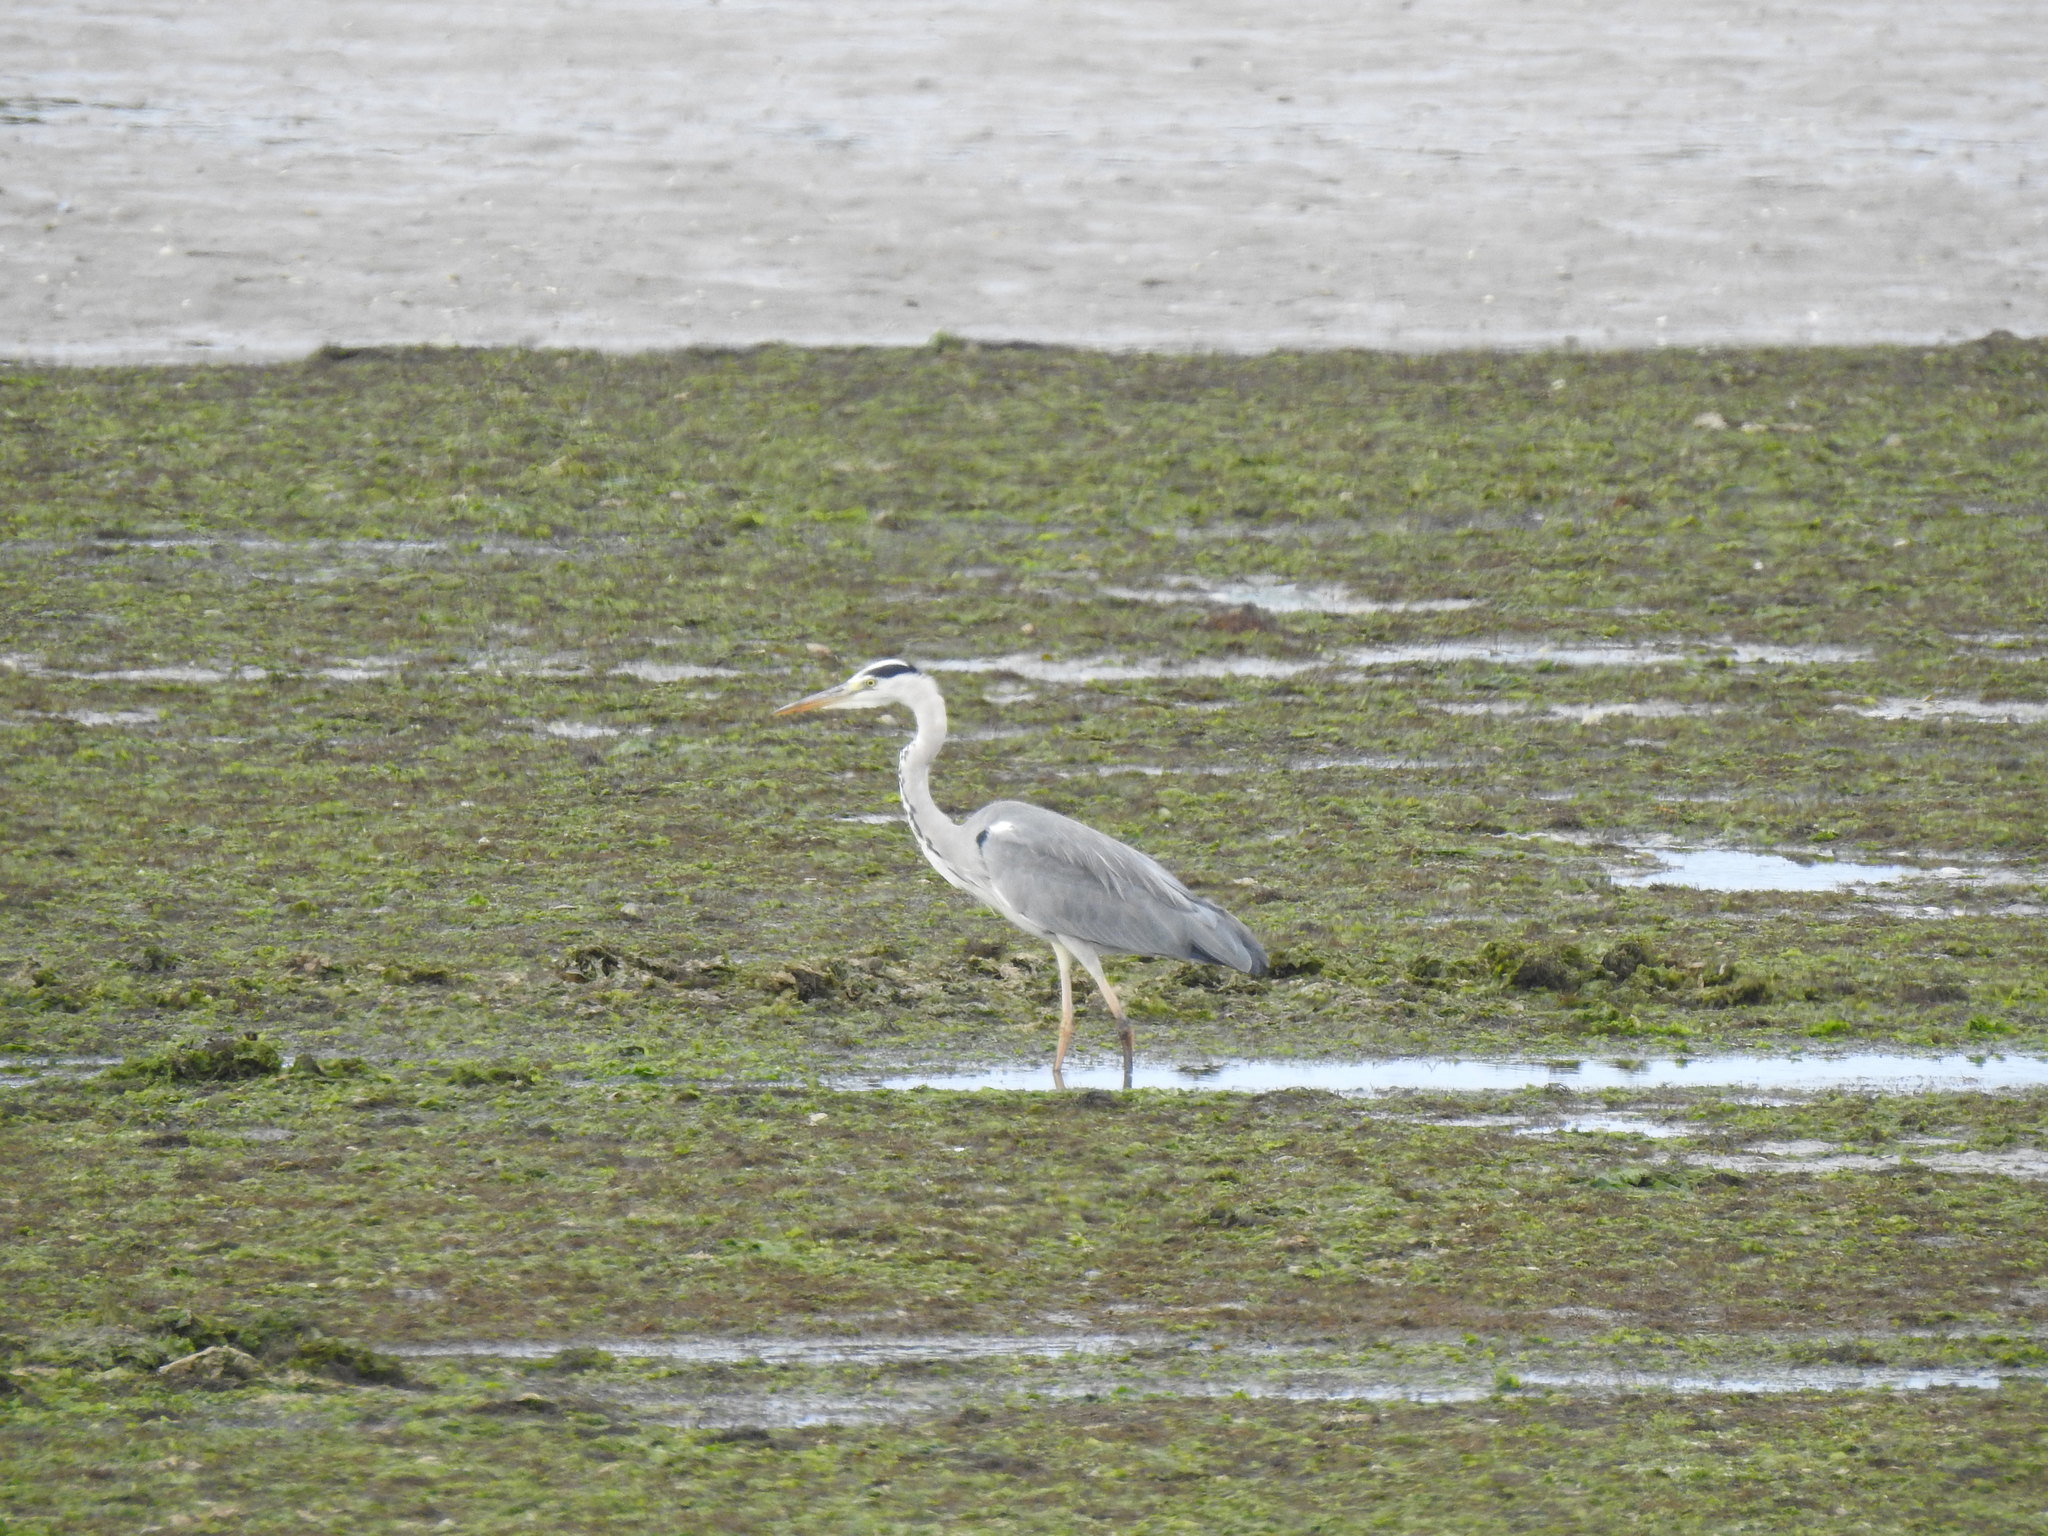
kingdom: Animalia
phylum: Chordata
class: Aves
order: Pelecaniformes
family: Ardeidae
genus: Ardea
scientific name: Ardea cinerea
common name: Grey heron
